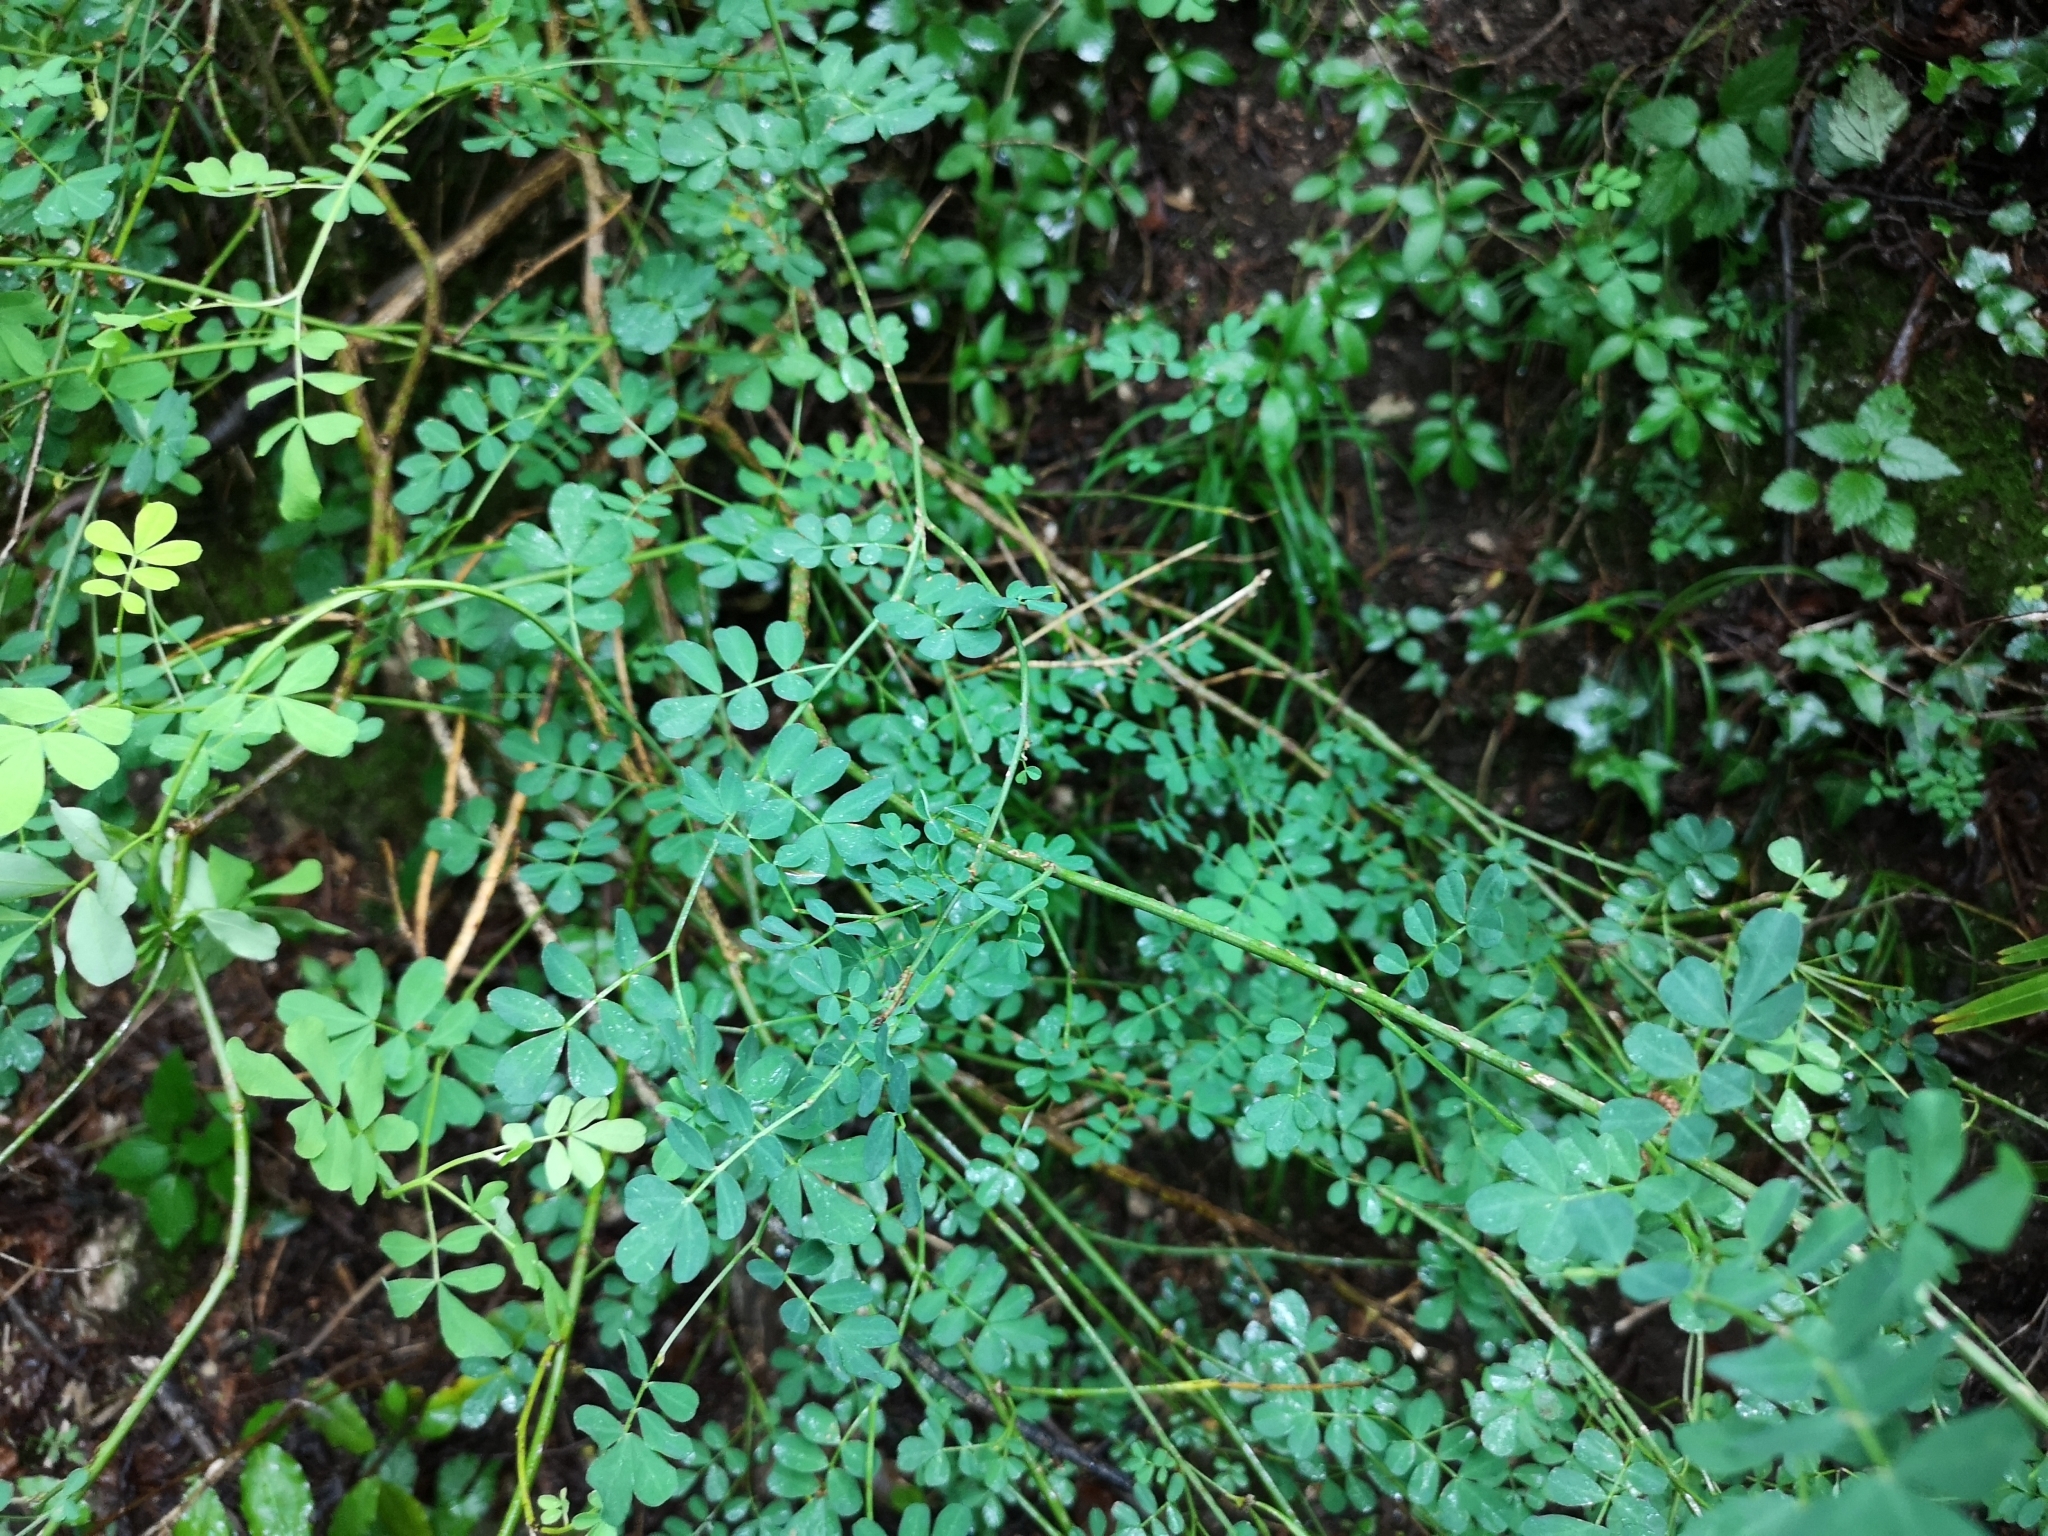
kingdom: Plantae
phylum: Tracheophyta
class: Magnoliopsida
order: Fabales
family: Fabaceae
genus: Hippocrepis
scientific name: Hippocrepis emerus
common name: Scorpion senna
